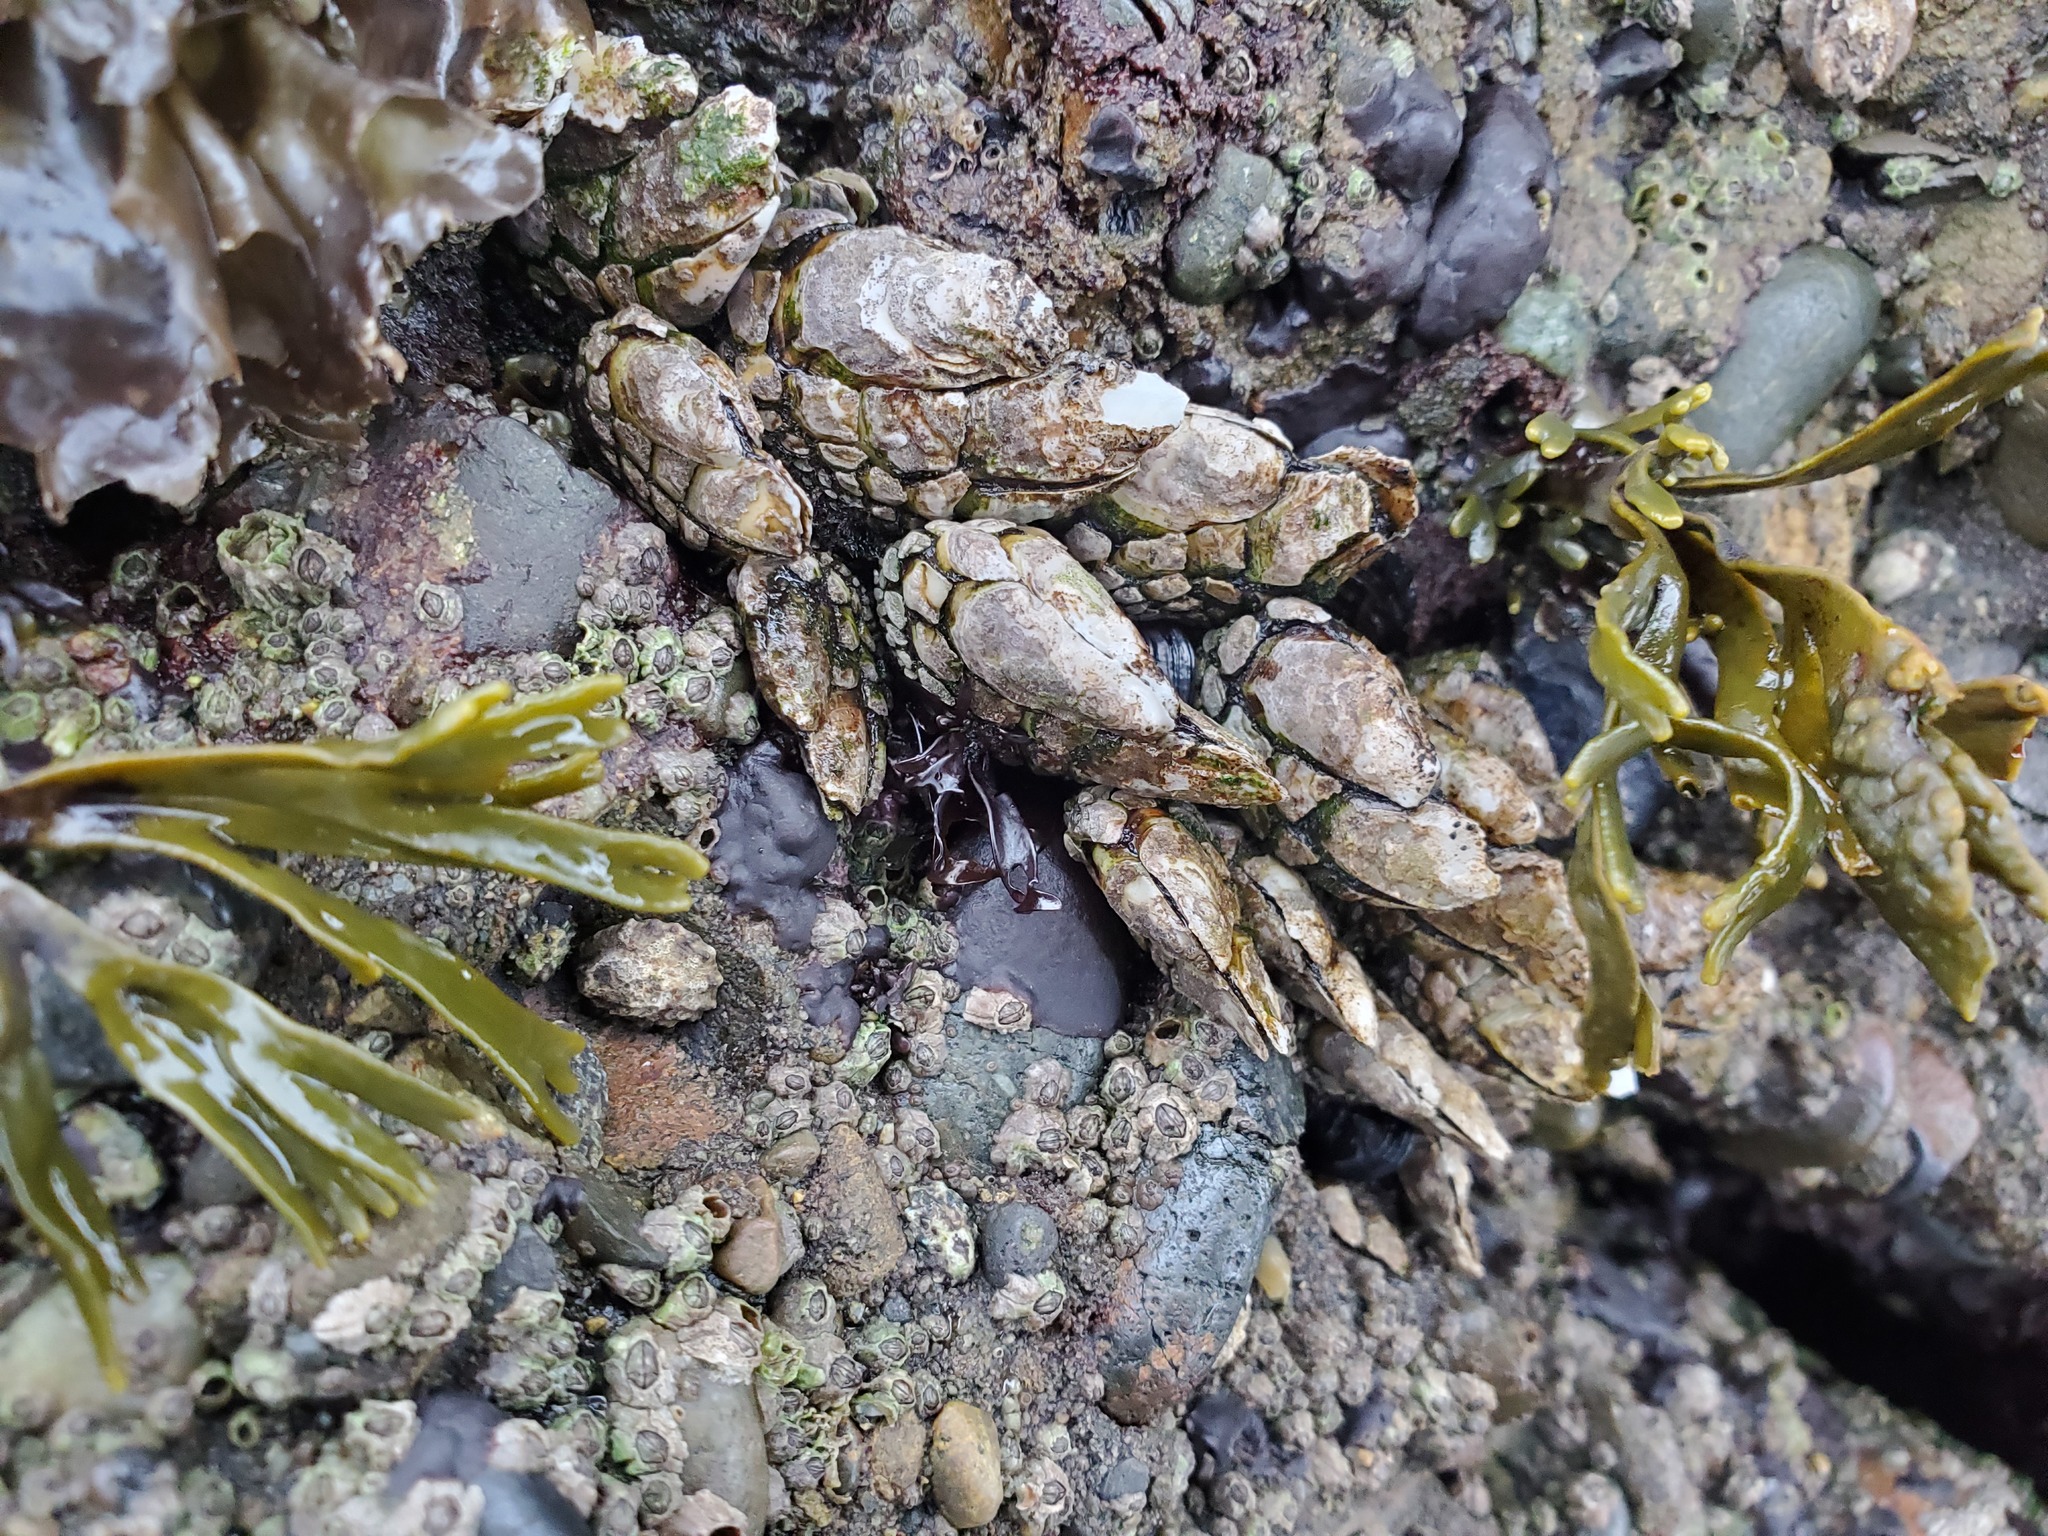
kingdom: Animalia
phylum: Arthropoda
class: Maxillopoda
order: Pedunculata
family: Pollicipedidae
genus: Pollicipes
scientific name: Pollicipes polymerus
